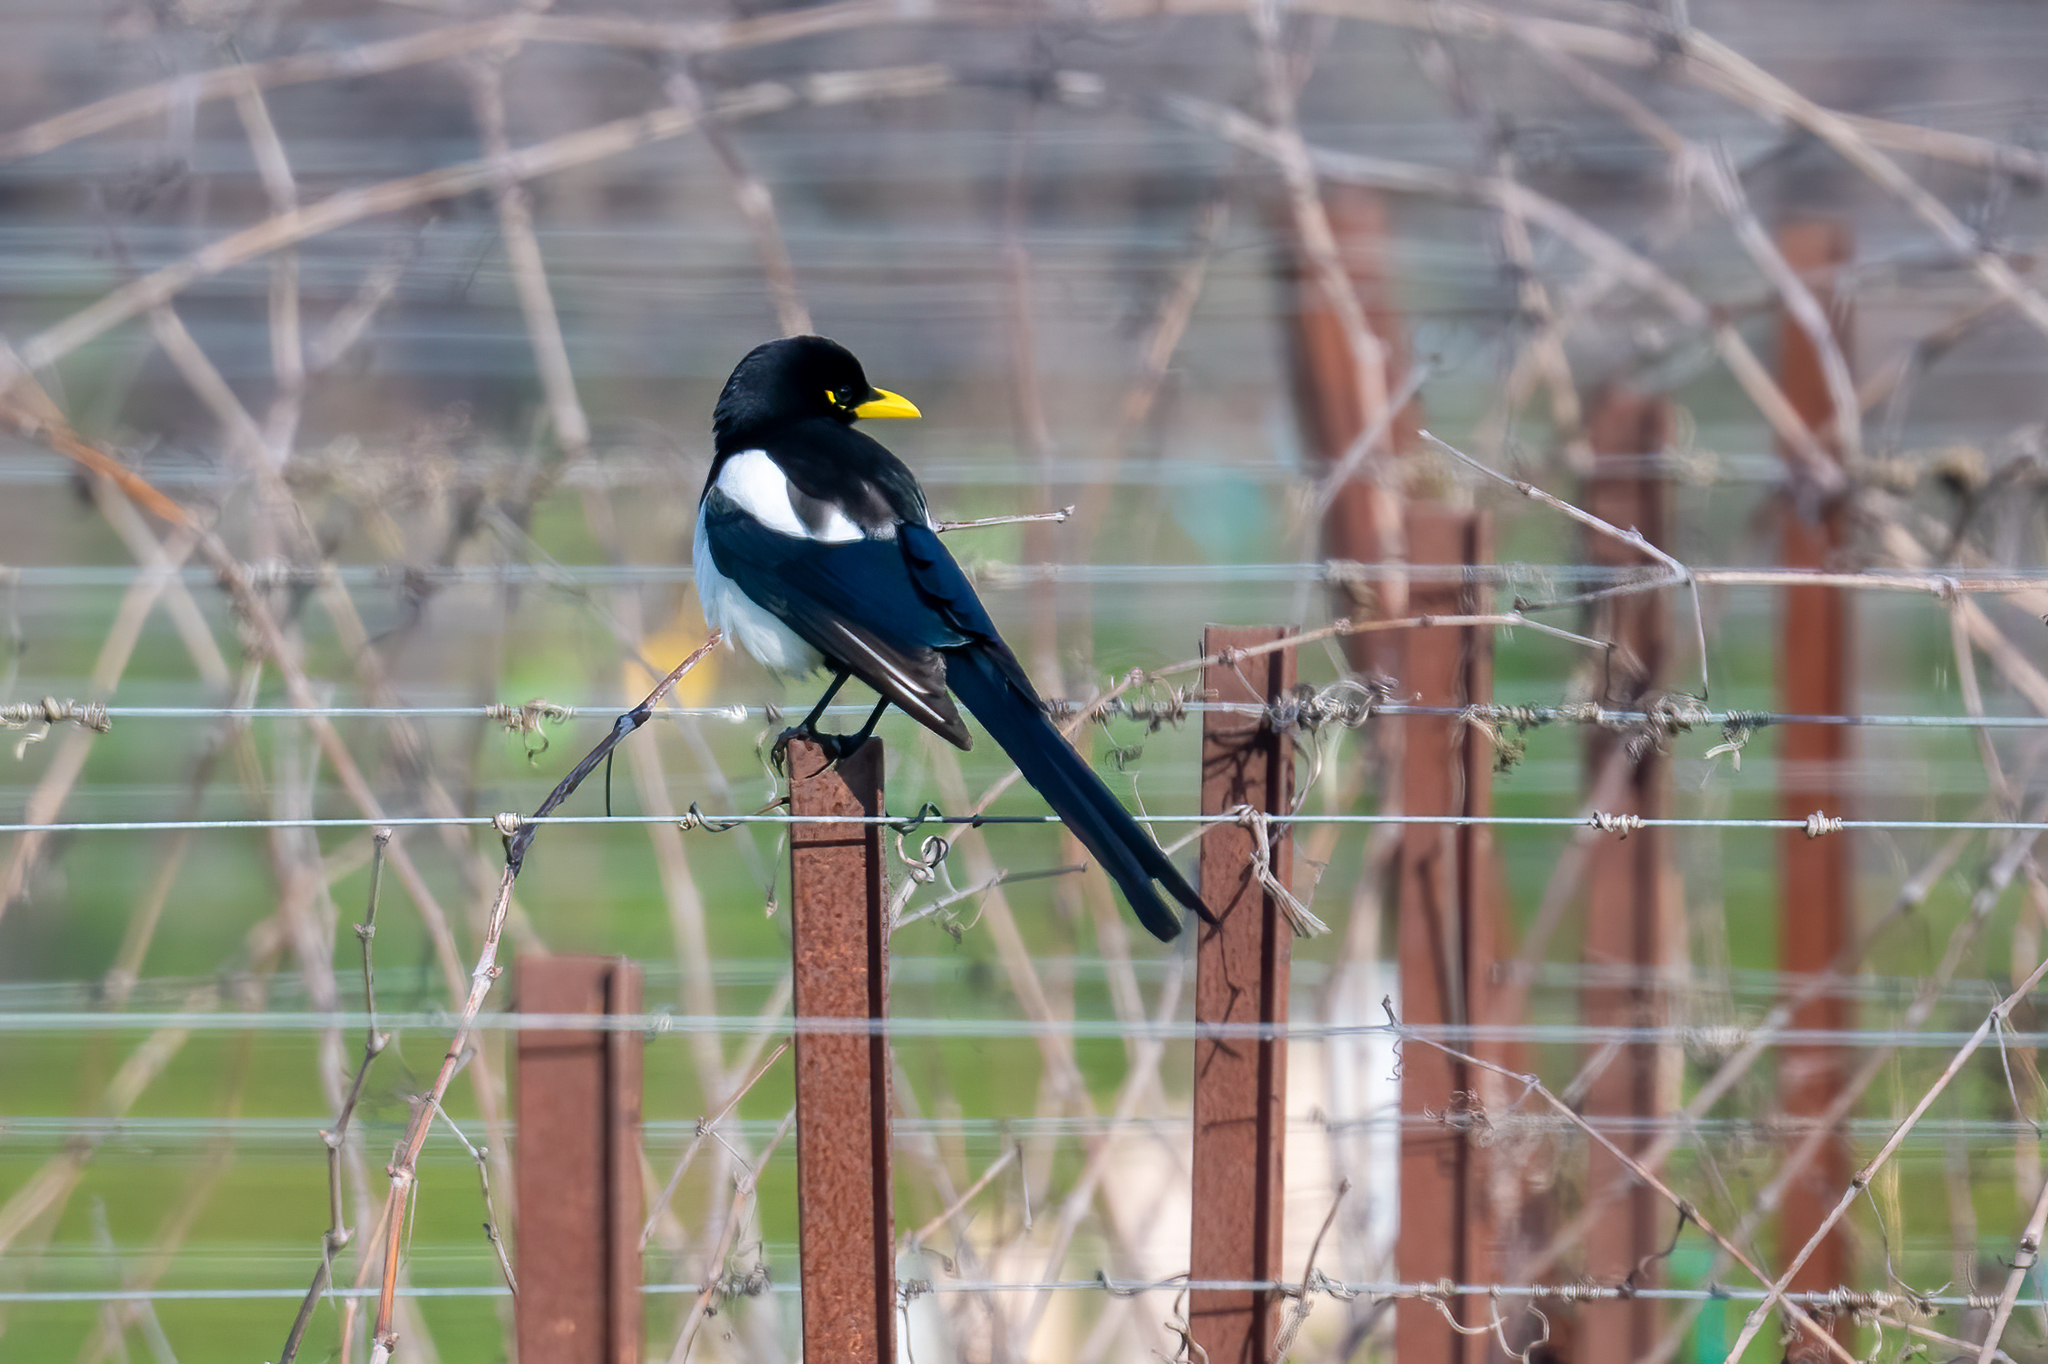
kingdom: Animalia
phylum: Chordata
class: Aves
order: Passeriformes
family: Corvidae
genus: Pica
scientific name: Pica nuttalli
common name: Yellow-billed magpie
